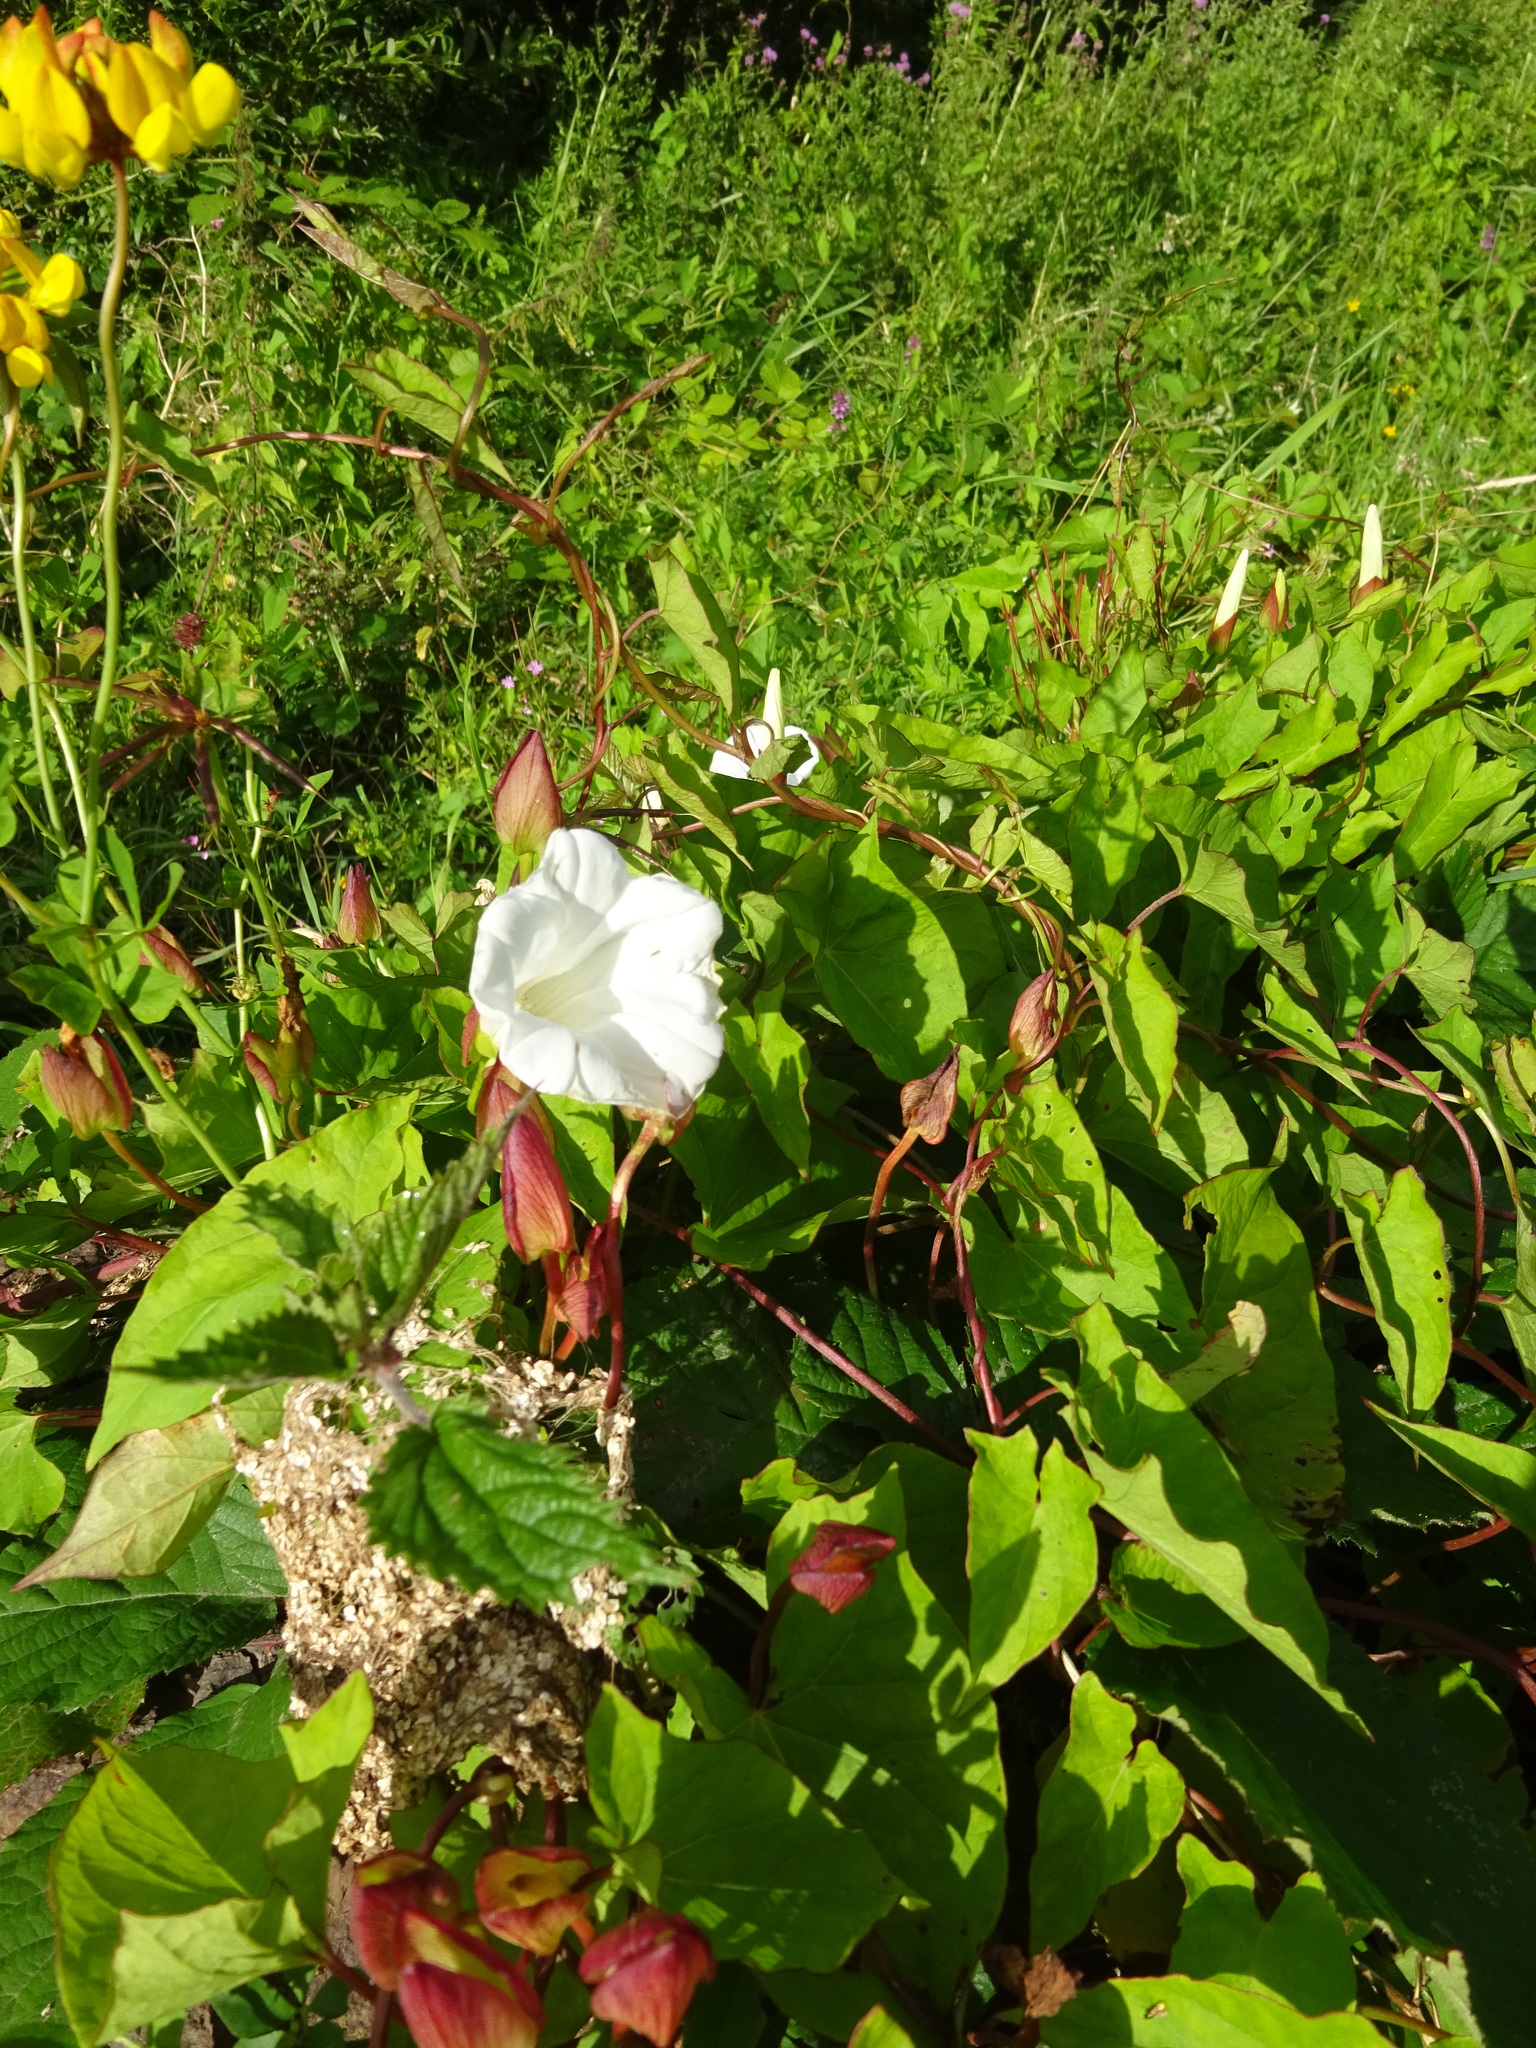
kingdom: Plantae
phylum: Tracheophyta
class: Magnoliopsida
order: Solanales
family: Convolvulaceae
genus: Calystegia
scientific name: Calystegia sepium
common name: Hedge bindweed
